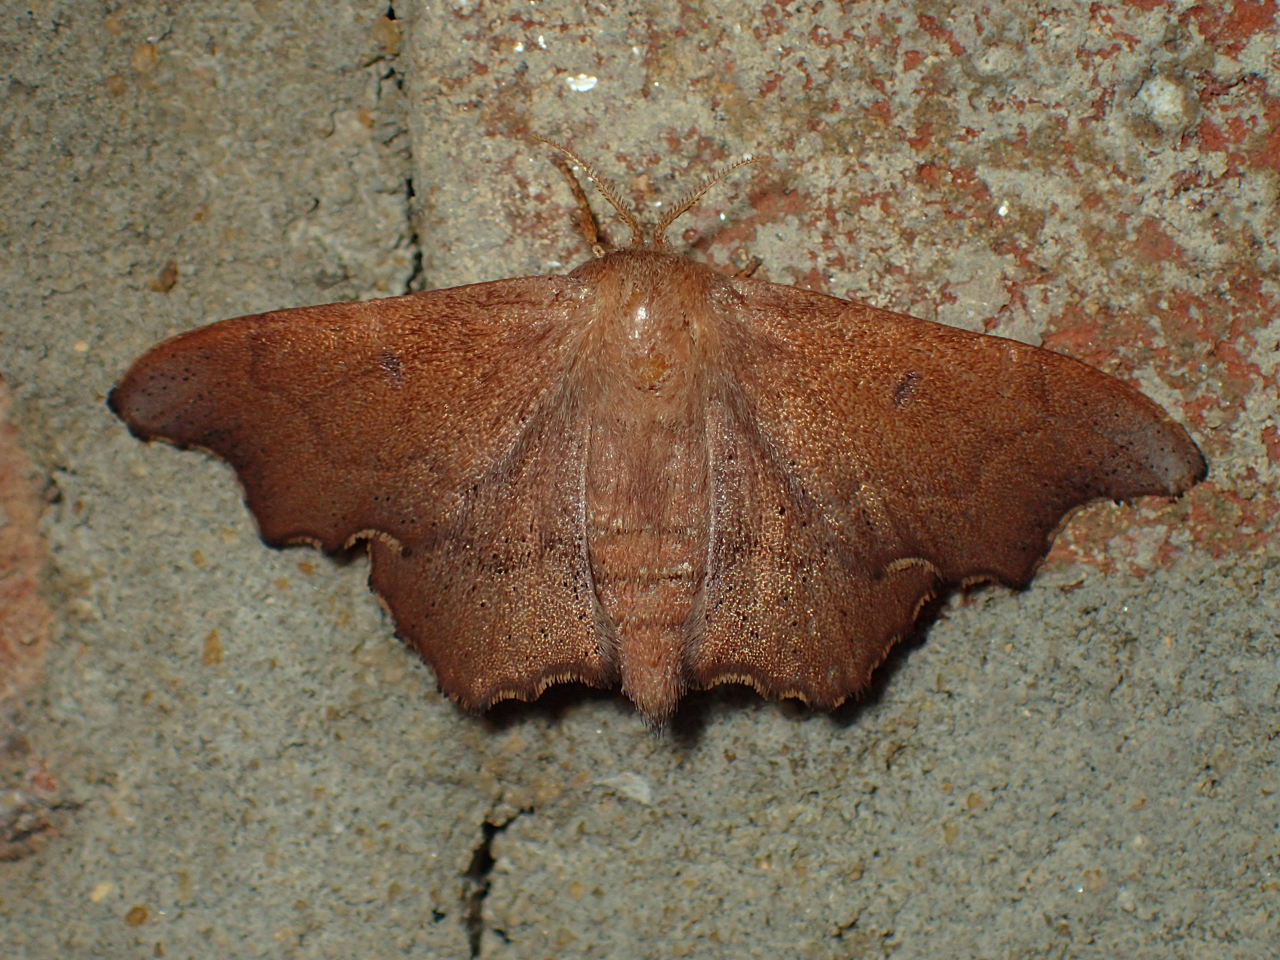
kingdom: Animalia
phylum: Arthropoda
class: Insecta
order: Lepidoptera
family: Mimallonidae
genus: Lacosoma
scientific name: Lacosoma chiridota
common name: Scalloped sack-bearer moth
